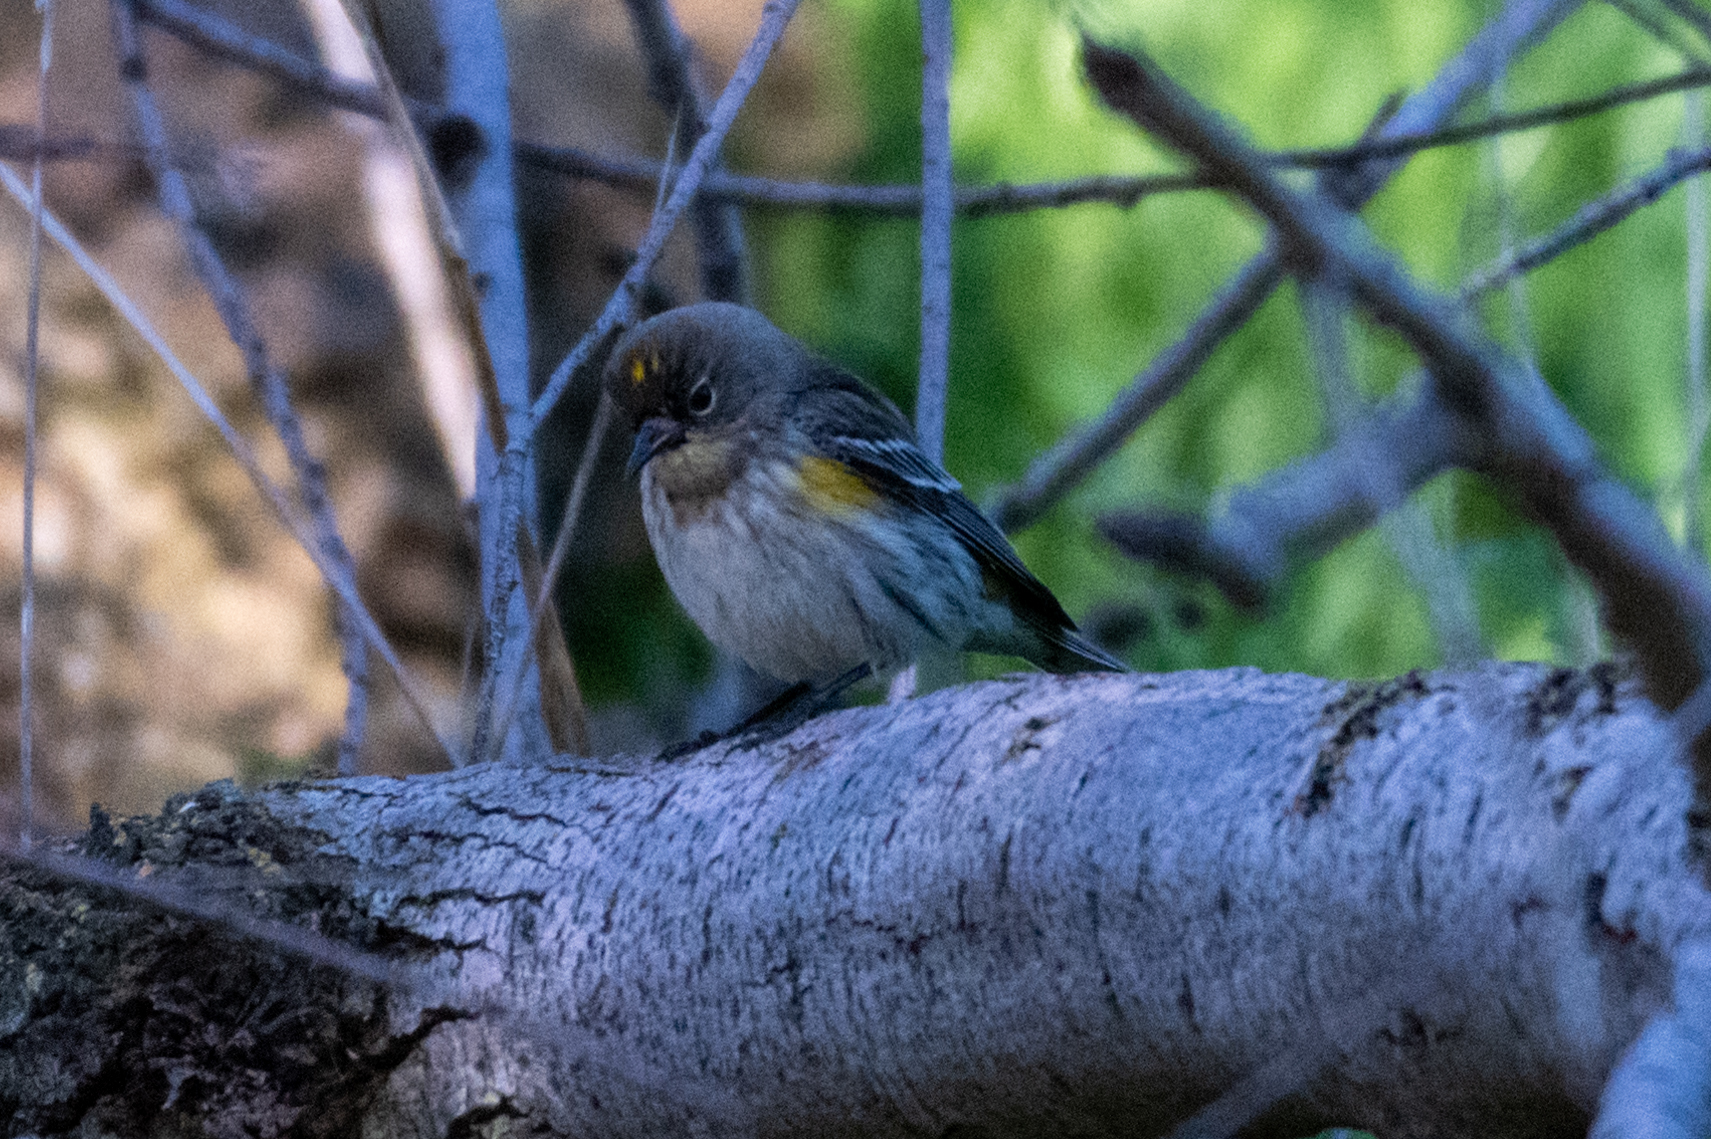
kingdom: Animalia
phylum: Chordata
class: Aves
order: Passeriformes
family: Parulidae
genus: Setophaga
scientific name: Setophaga coronata
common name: Myrtle warbler
